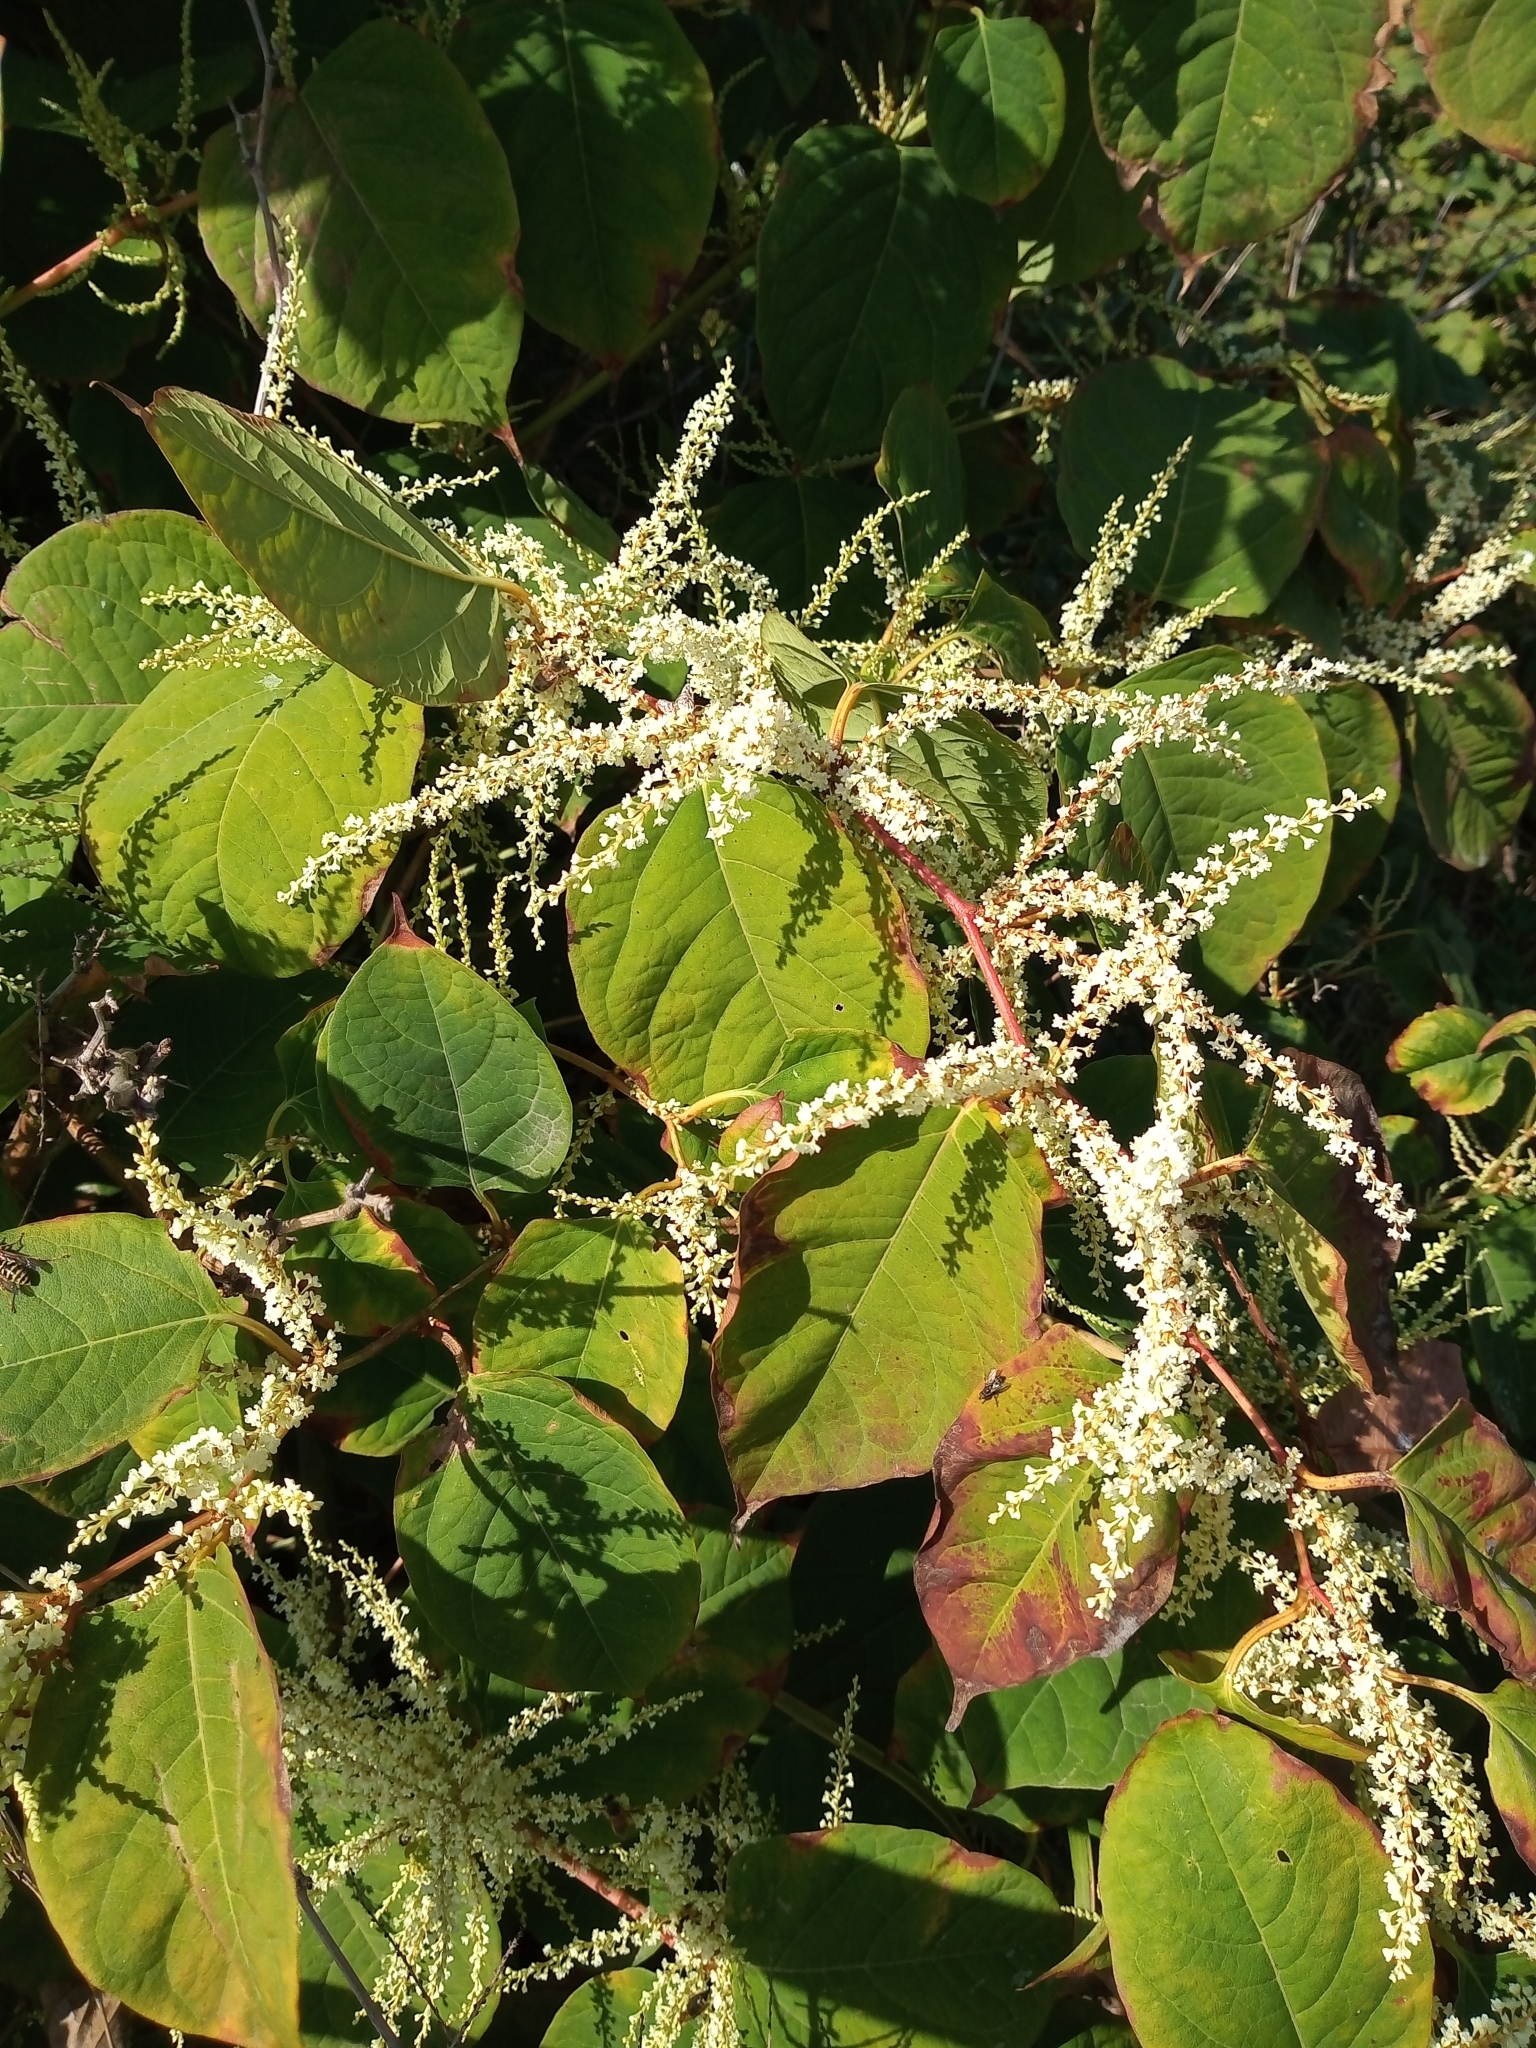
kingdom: Plantae
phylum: Tracheophyta
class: Magnoliopsida
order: Caryophyllales
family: Polygonaceae
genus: Reynoutria
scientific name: Reynoutria japonica
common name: Japanese knotweed
